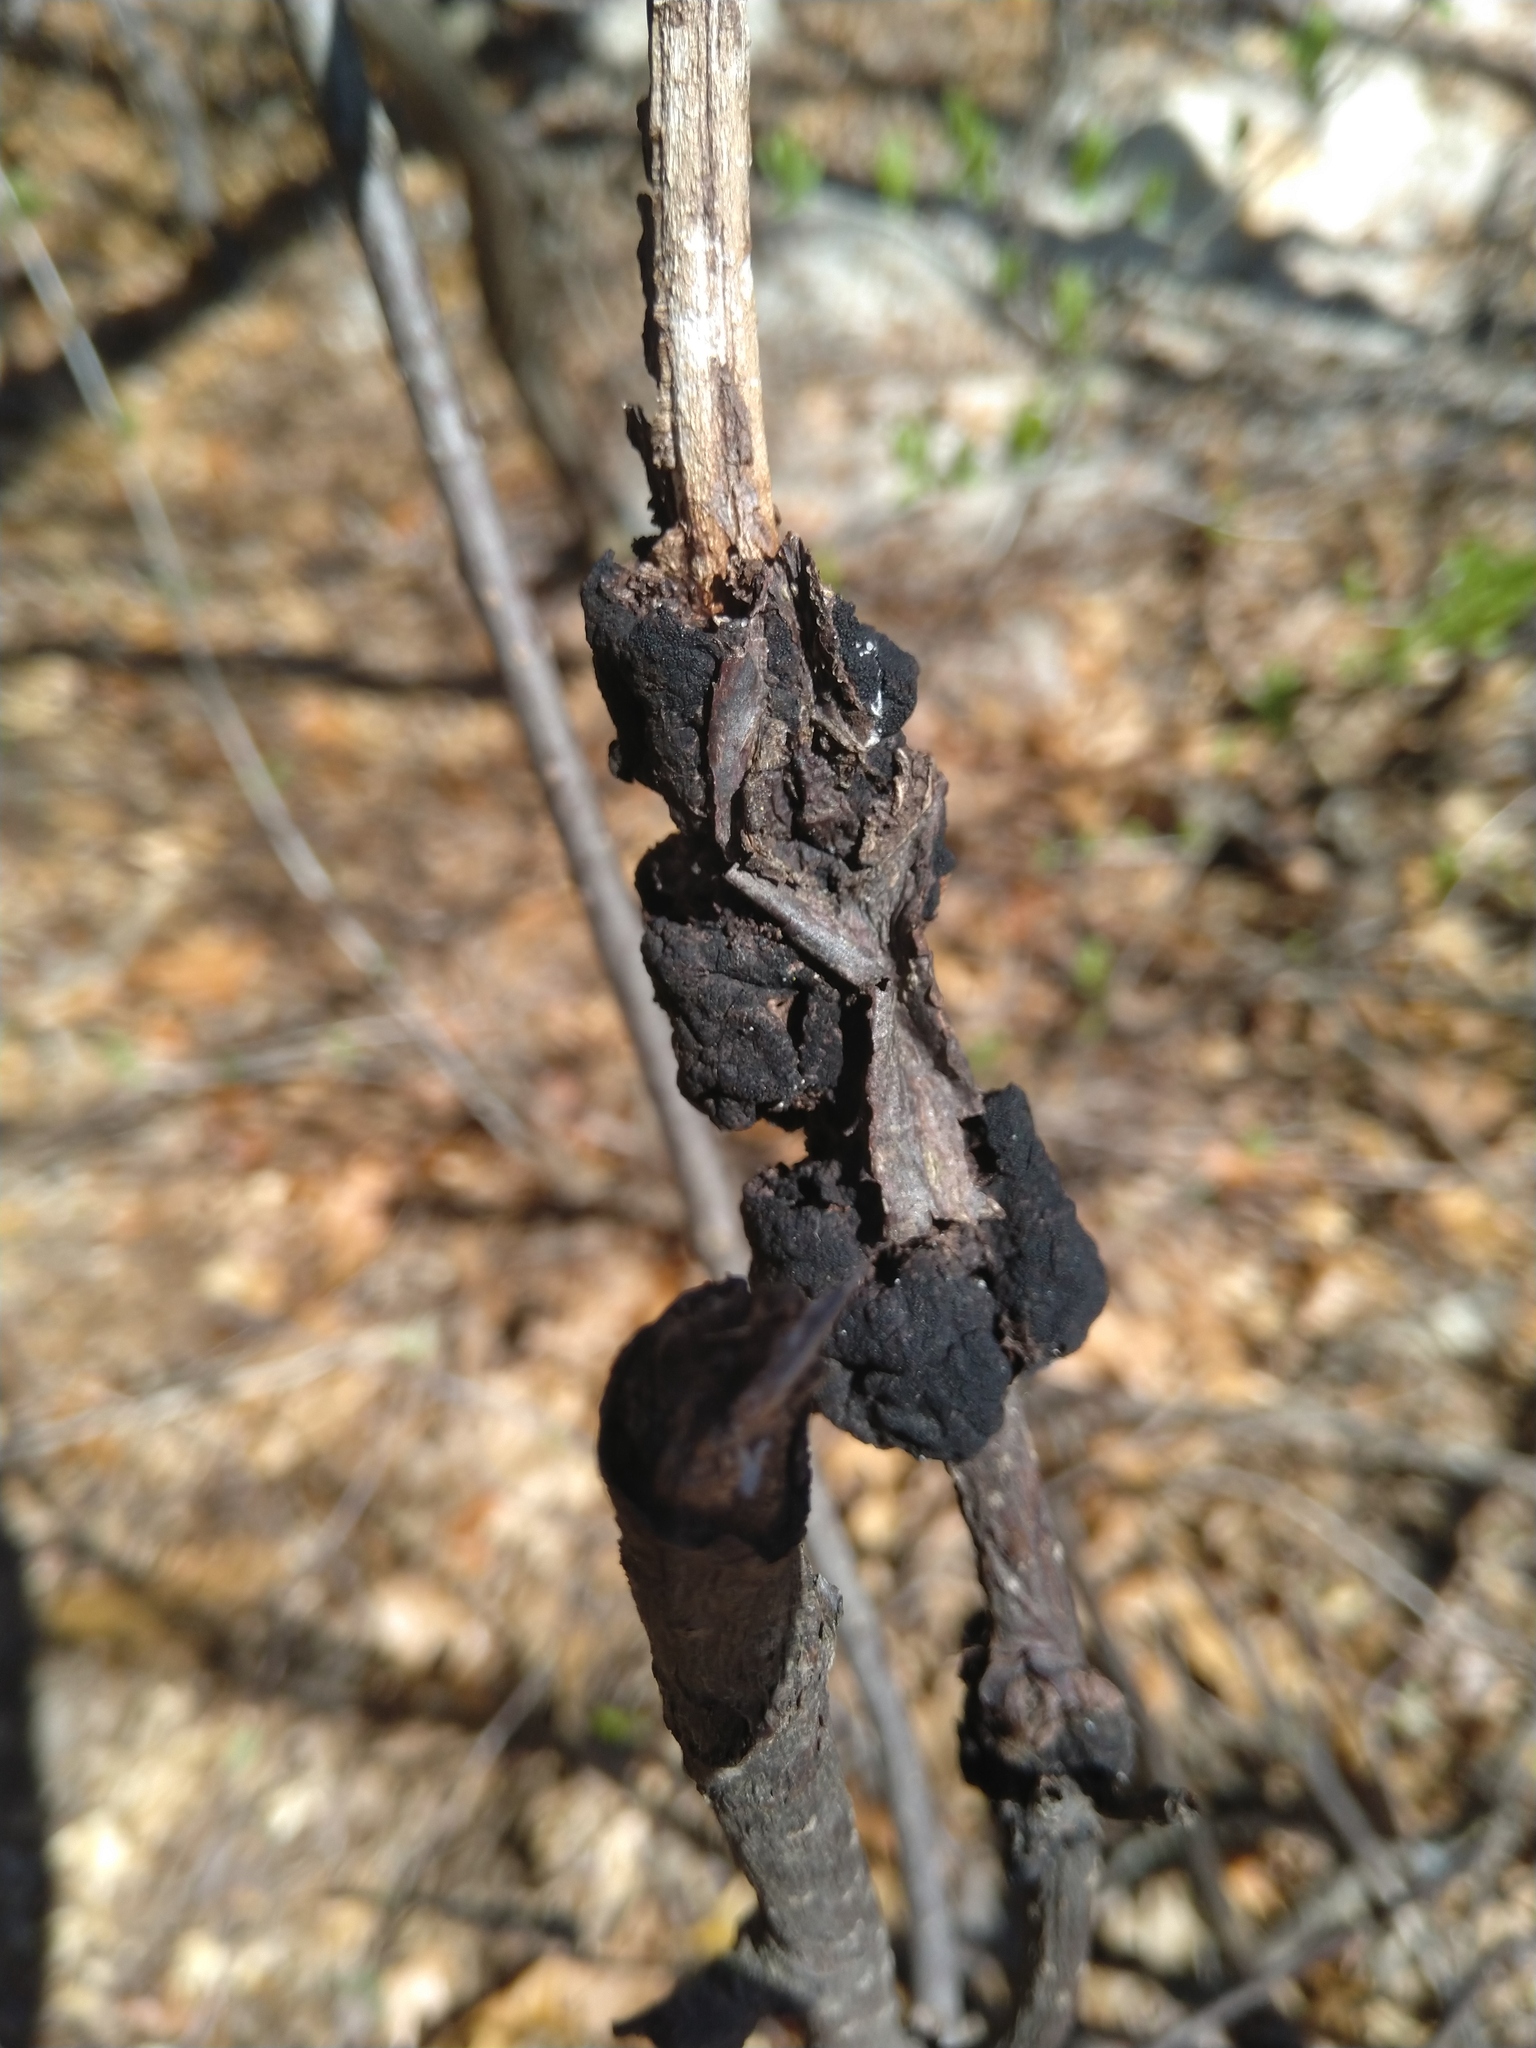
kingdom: Fungi
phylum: Ascomycota
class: Dothideomycetes
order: Venturiales
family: Venturiaceae
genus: Apiosporina
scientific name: Apiosporina morbosa
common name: Black knot
